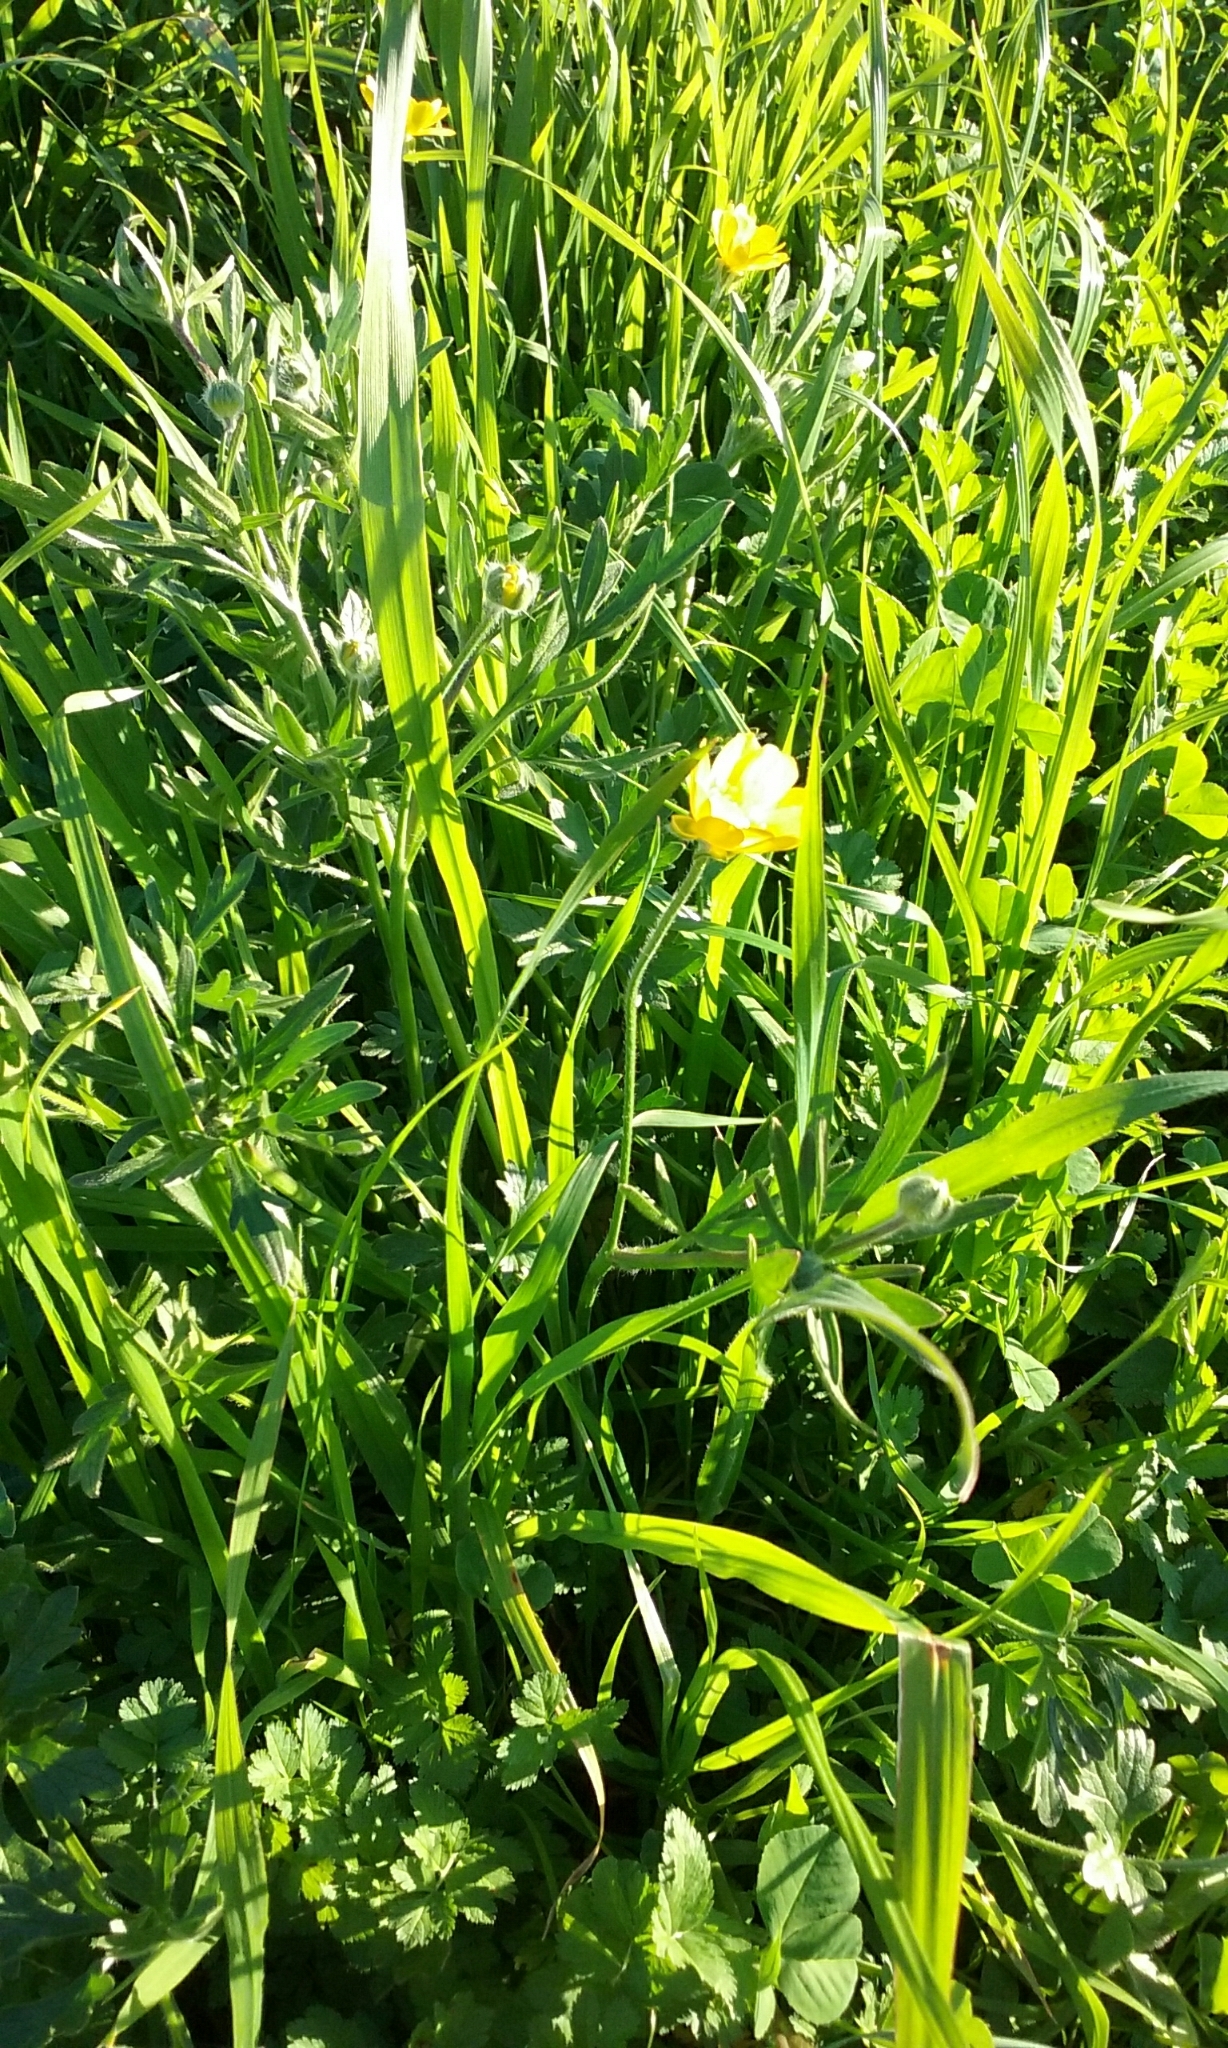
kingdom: Plantae
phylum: Tracheophyta
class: Magnoliopsida
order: Ranunculales
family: Ranunculaceae
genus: Ranunculus
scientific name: Ranunculus californicus
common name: California buttercup
